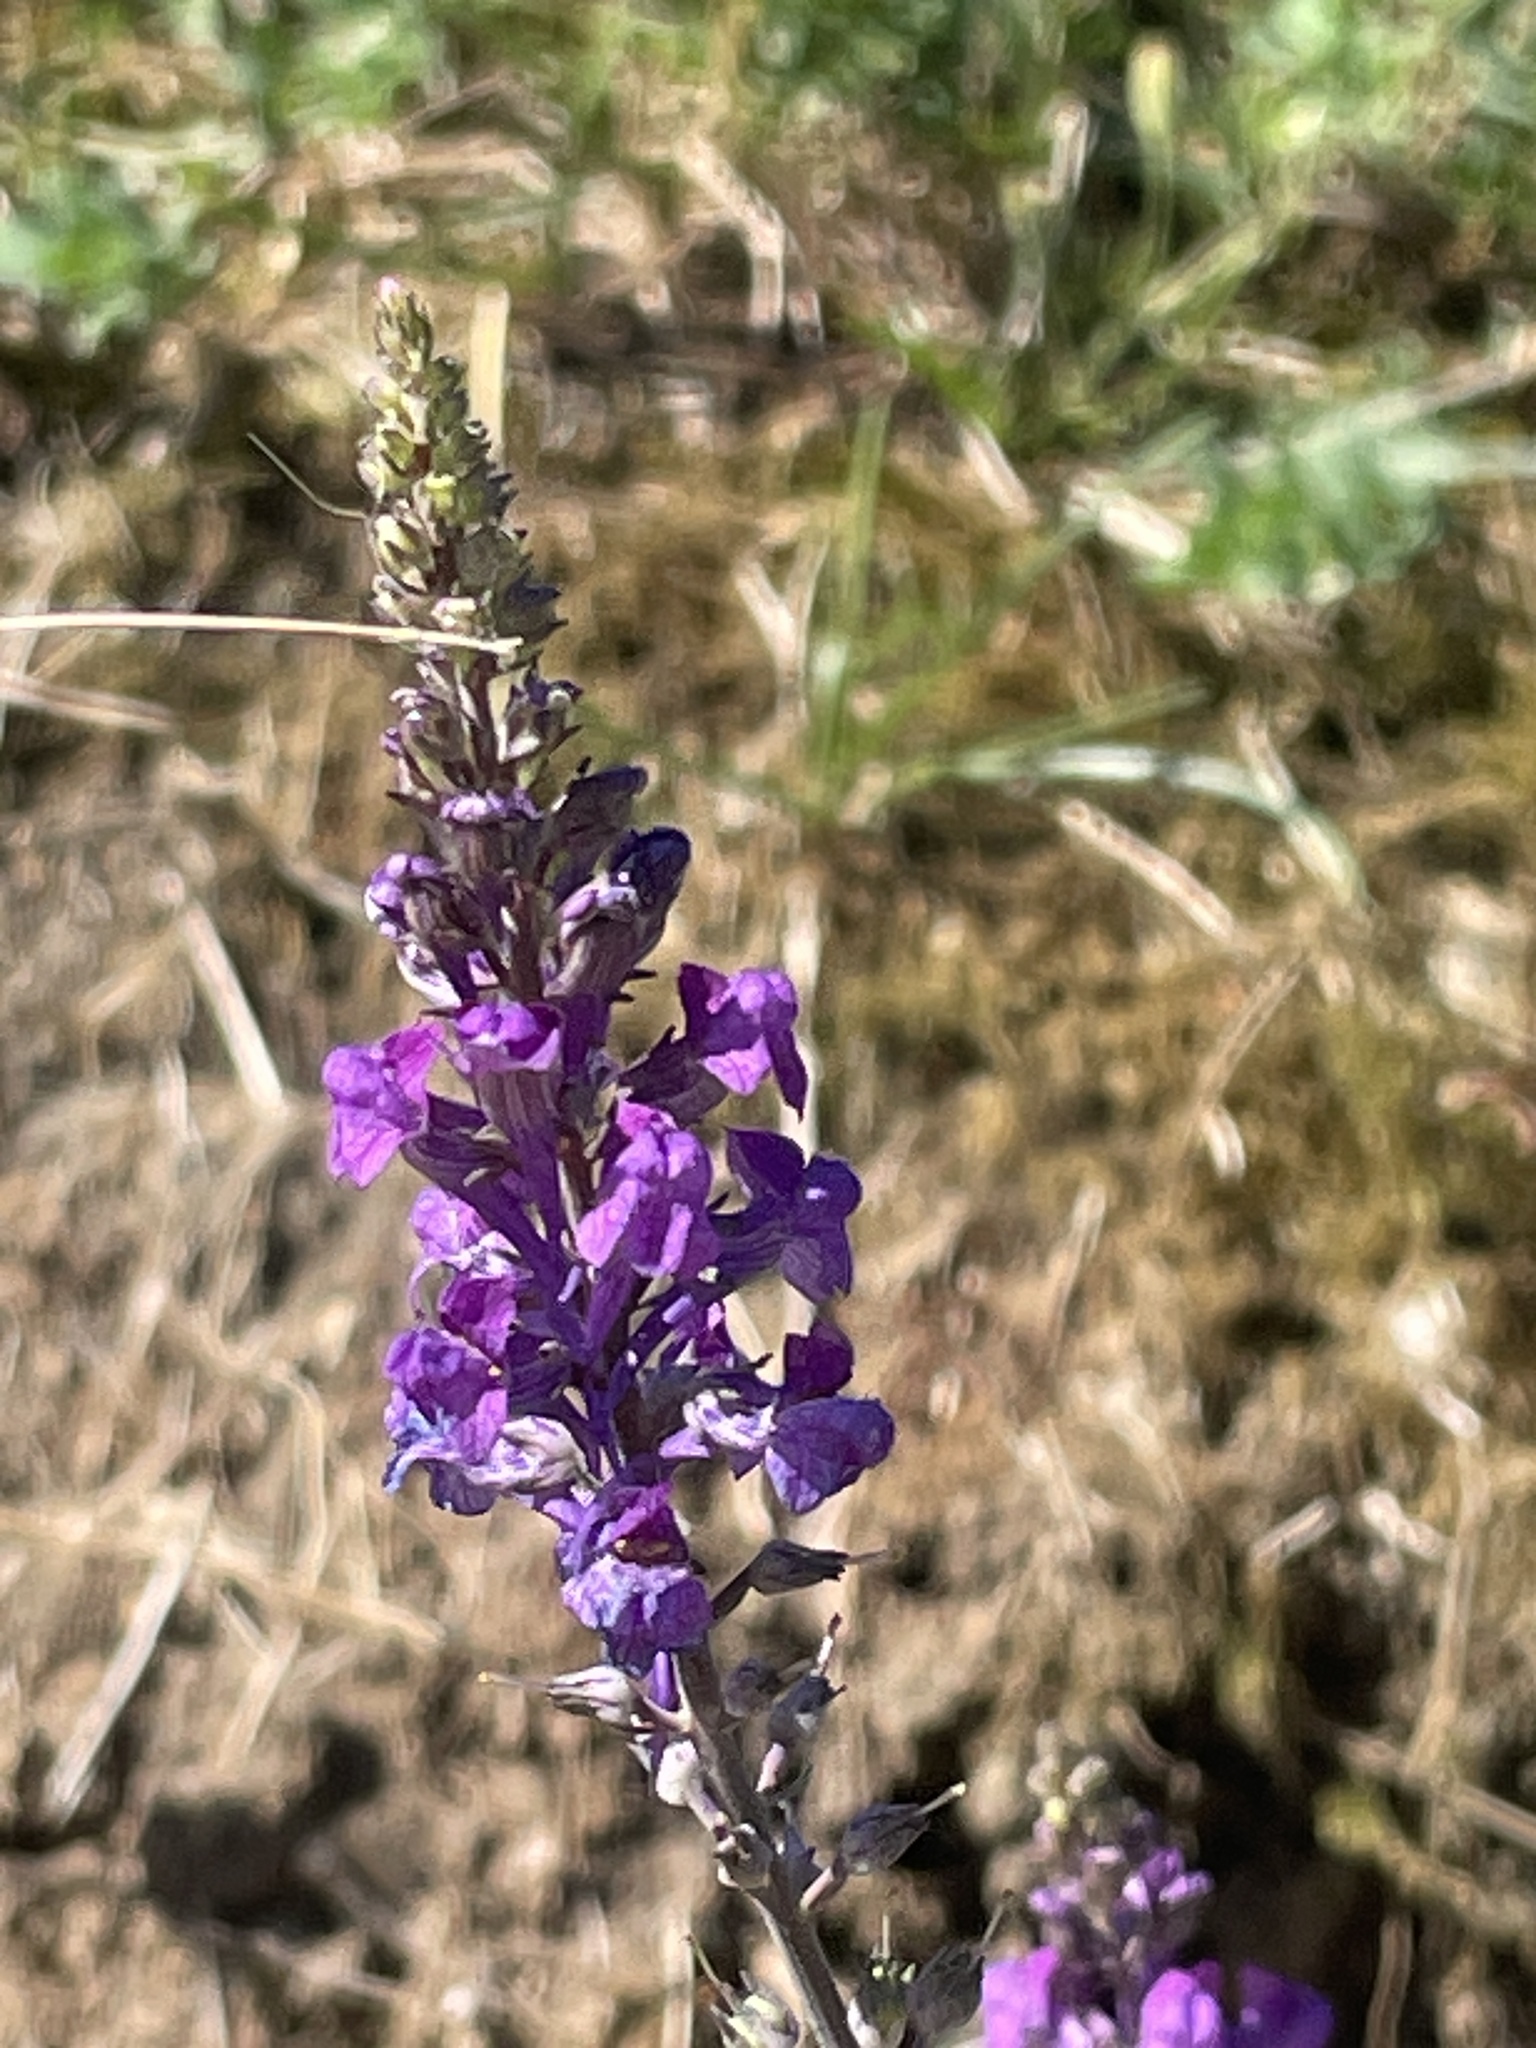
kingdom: Plantae
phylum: Tracheophyta
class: Magnoliopsida
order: Lamiales
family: Plantaginaceae
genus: Linaria
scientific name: Linaria purpurea
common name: Purple toadflax
